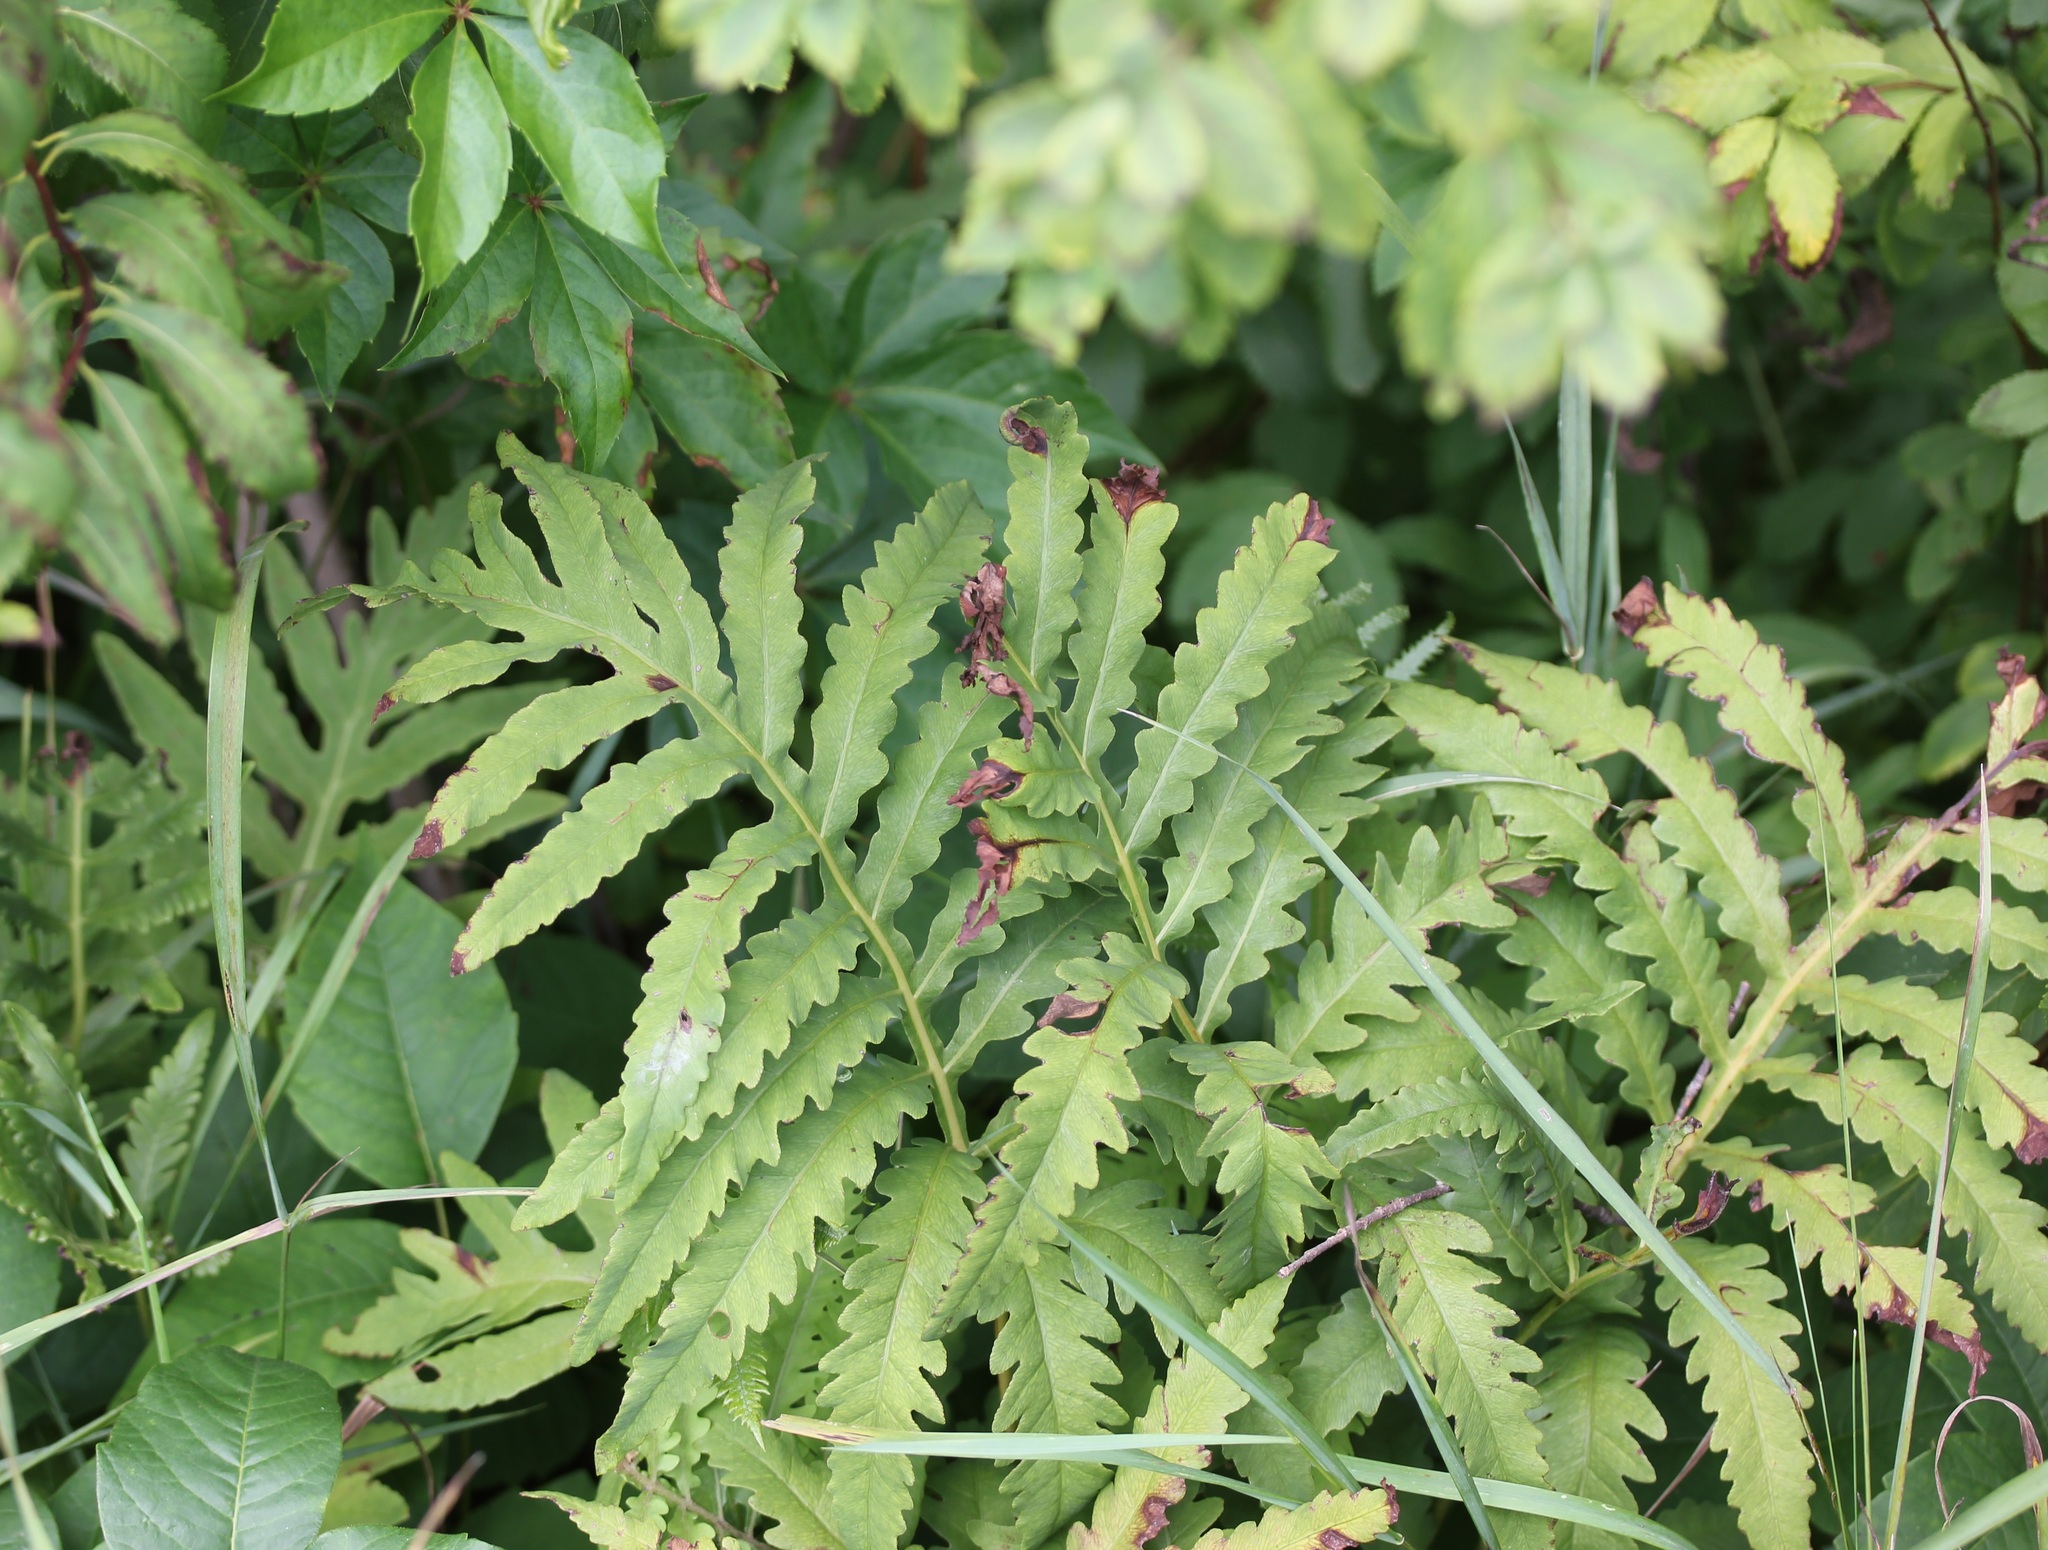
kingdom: Plantae
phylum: Tracheophyta
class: Polypodiopsida
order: Polypodiales
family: Onocleaceae
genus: Onoclea
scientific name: Onoclea sensibilis
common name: Sensitive fern
